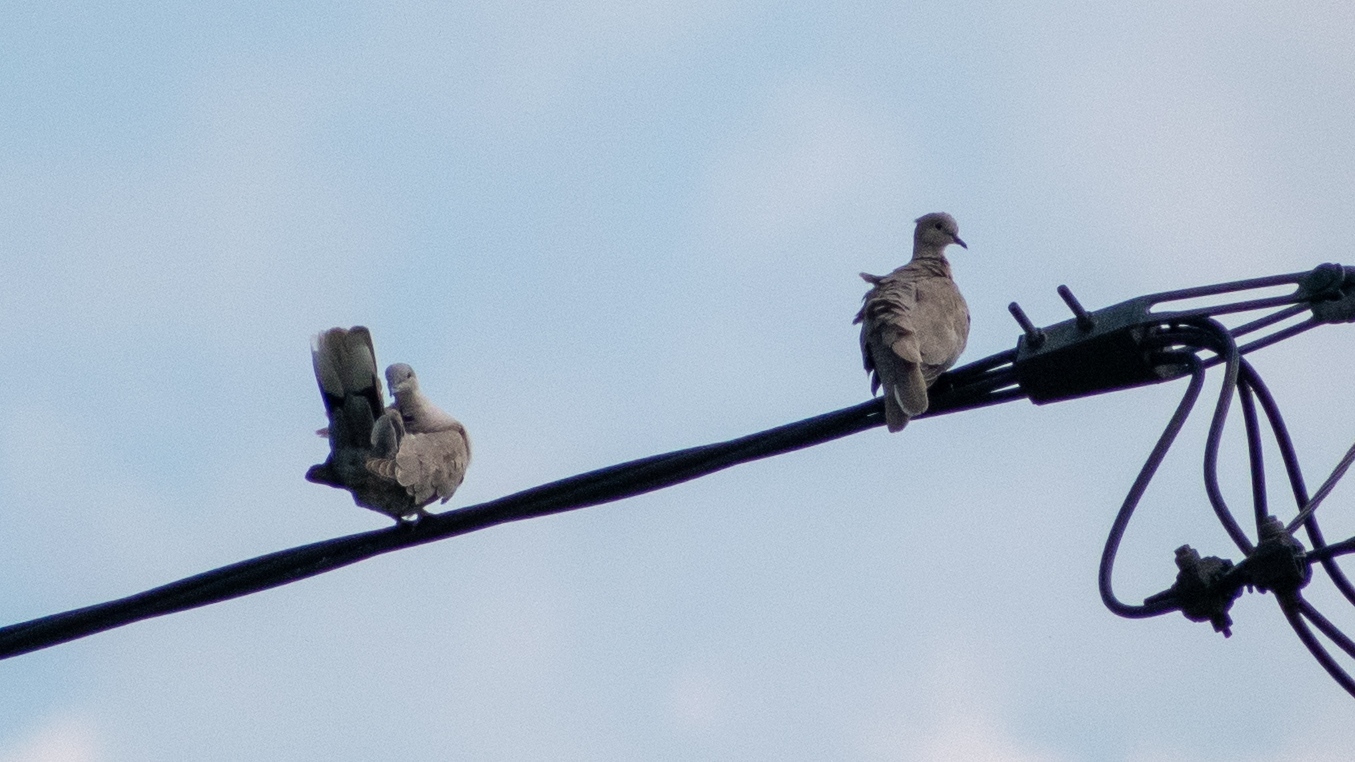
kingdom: Animalia
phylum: Chordata
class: Aves
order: Columbiformes
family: Columbidae
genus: Streptopelia
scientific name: Streptopelia decaocto
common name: Eurasian collared dove
